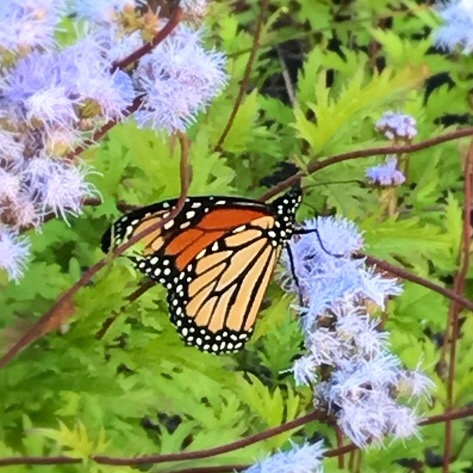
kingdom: Animalia
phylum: Arthropoda
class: Insecta
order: Lepidoptera
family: Nymphalidae
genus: Danaus
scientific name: Danaus plexippus
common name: Monarch
